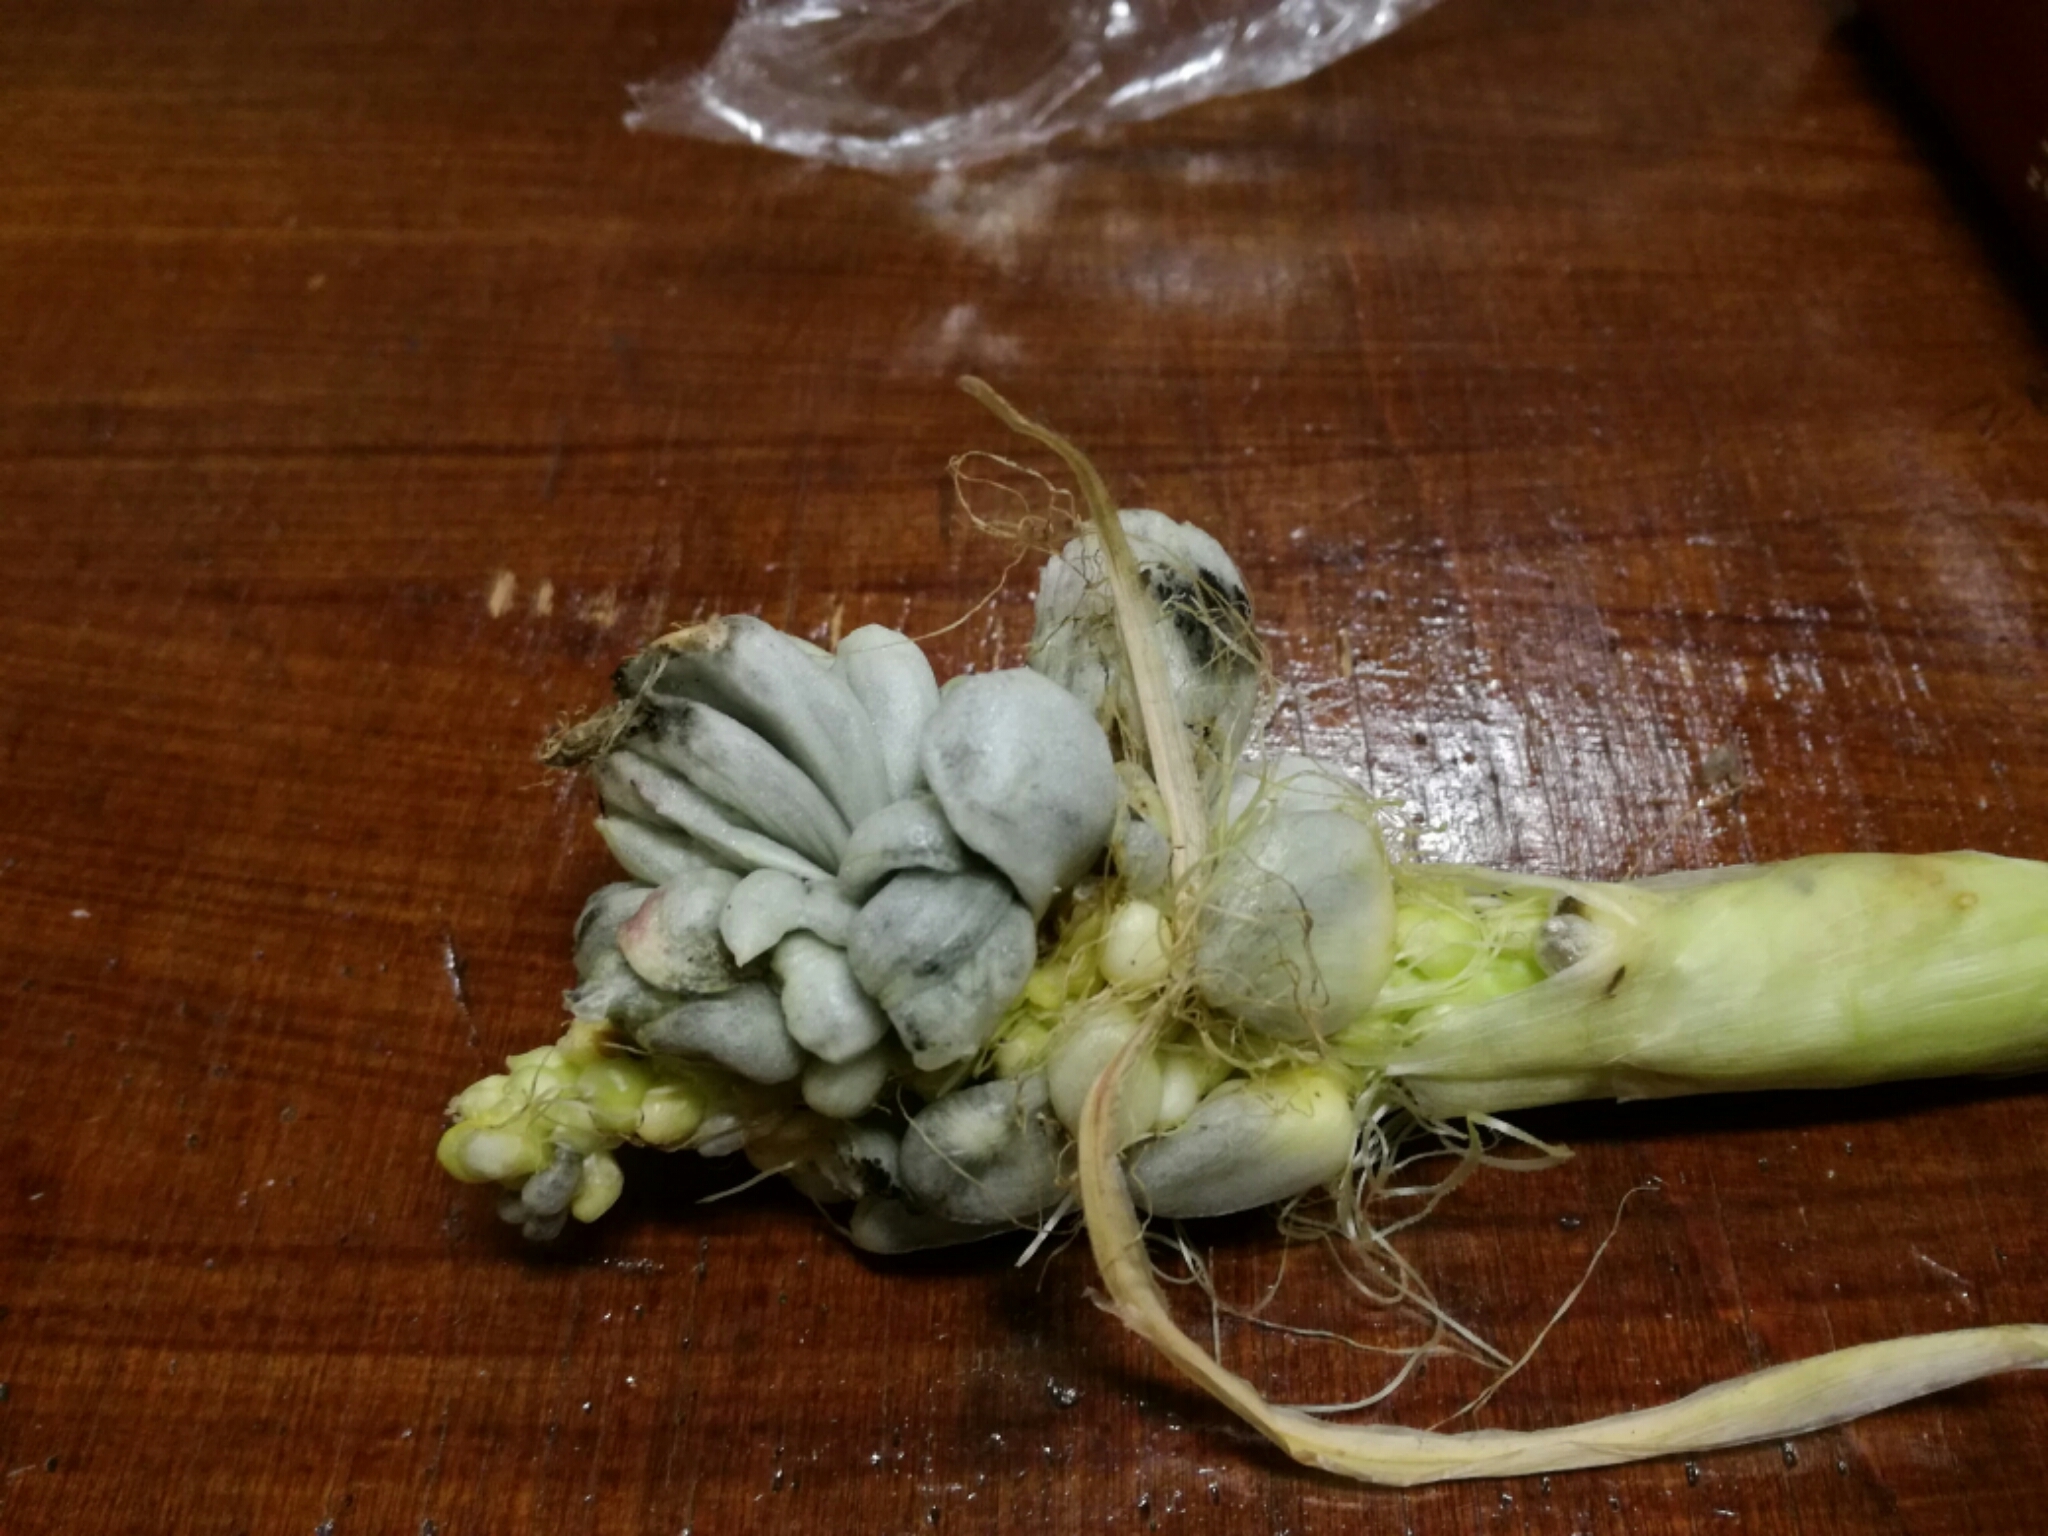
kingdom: Fungi
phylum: Basidiomycota
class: Ustilaginomycetes
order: Ustilaginales
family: Ustilaginaceae
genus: Mycosarcoma
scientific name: Mycosarcoma maydis
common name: Corn smut
